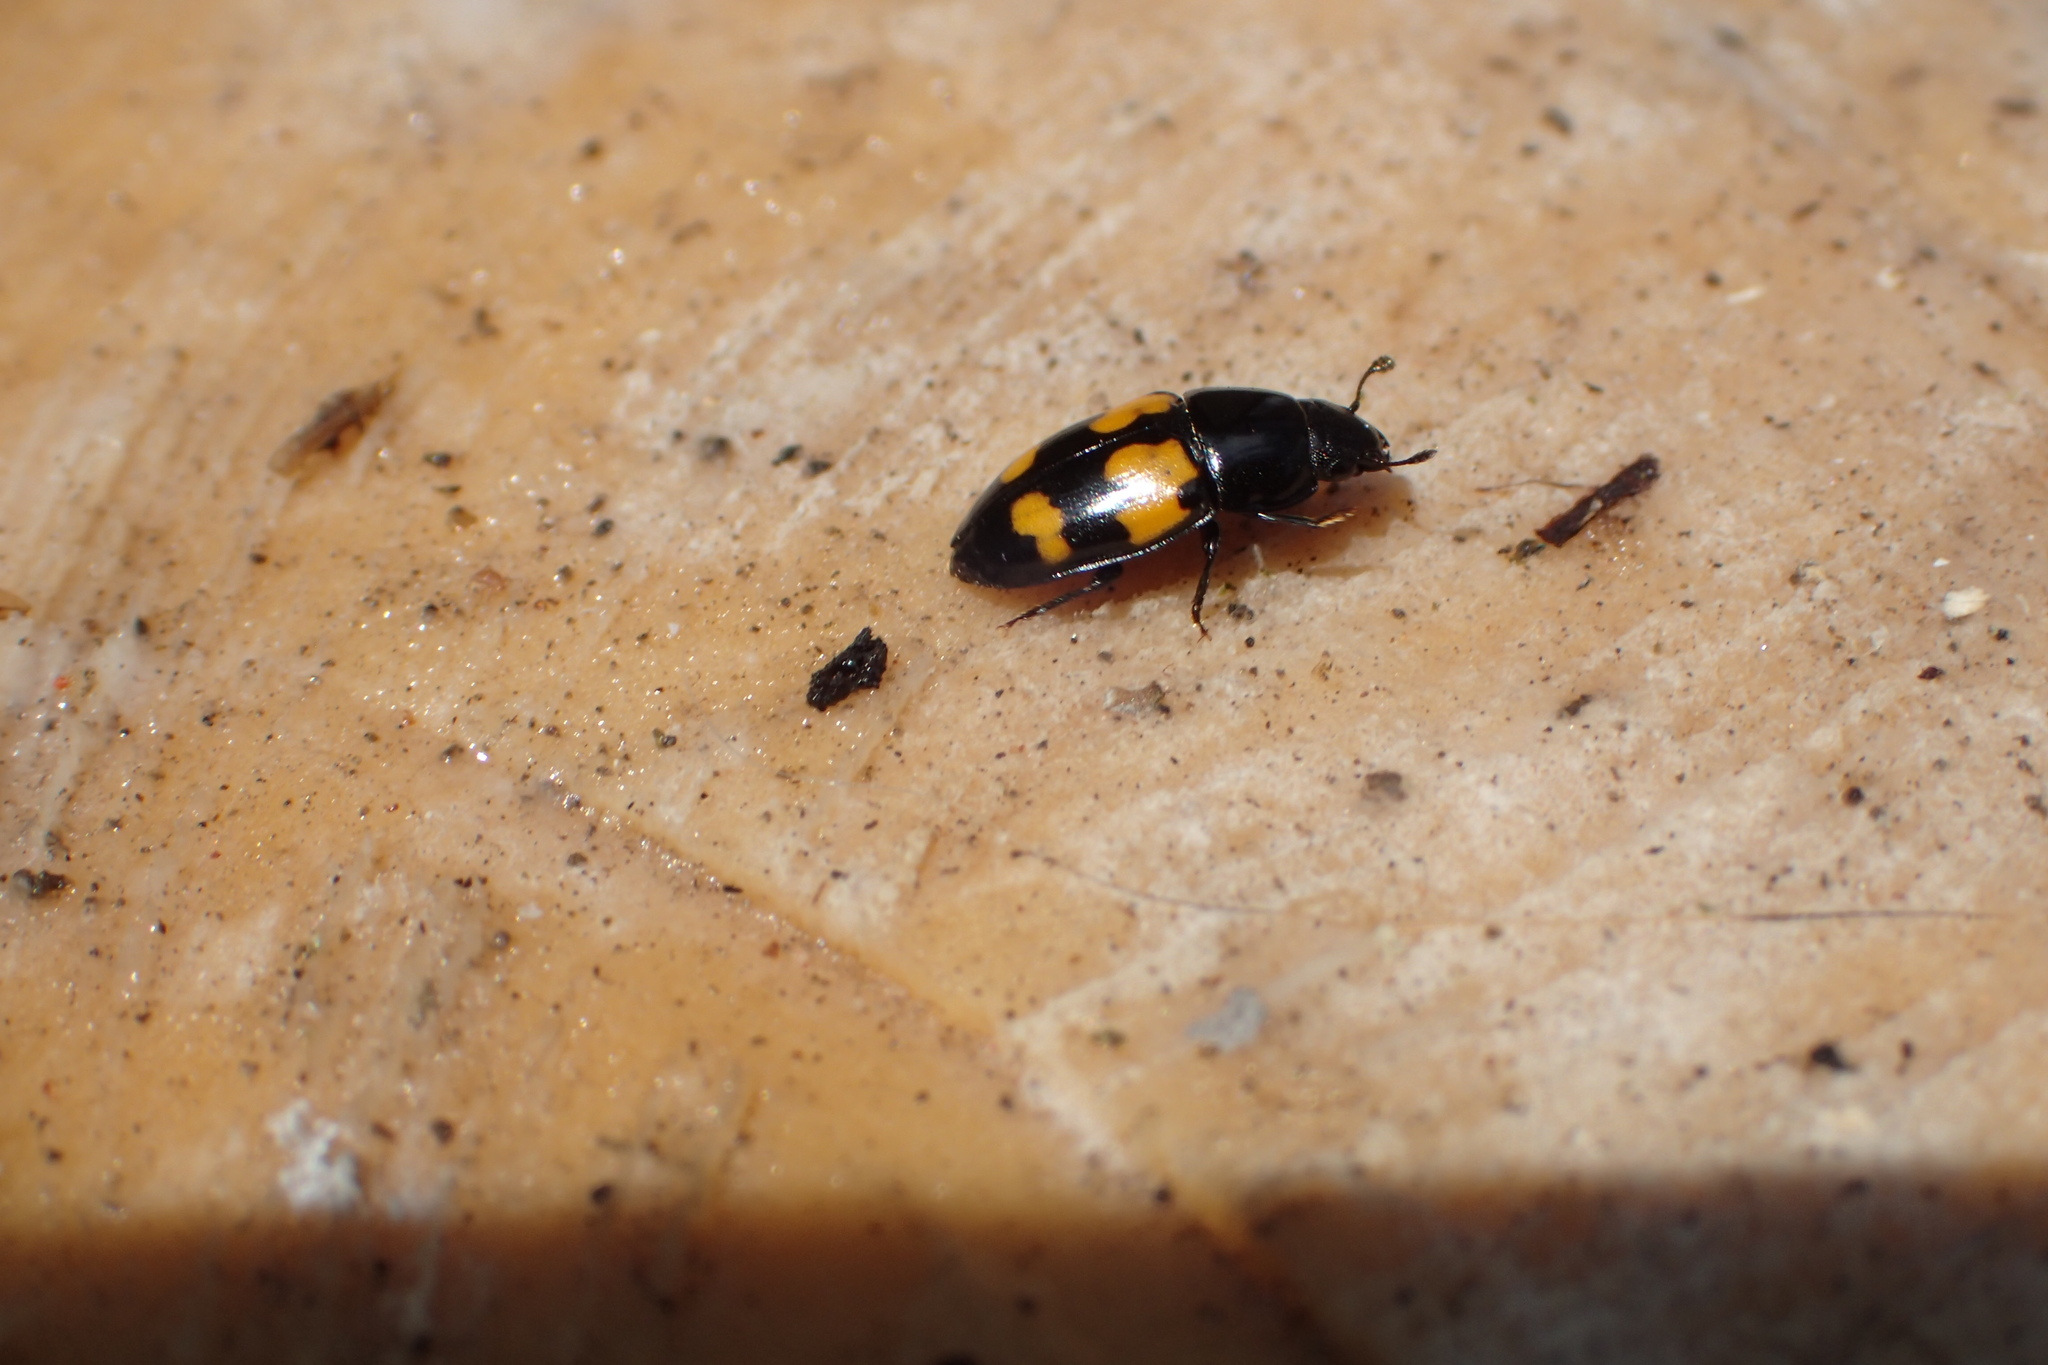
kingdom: Animalia
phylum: Arthropoda
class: Insecta
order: Coleoptera
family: Nitidulidae
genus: Glischrochilus
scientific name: Glischrochilus fasciatus
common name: Picnic beetle
